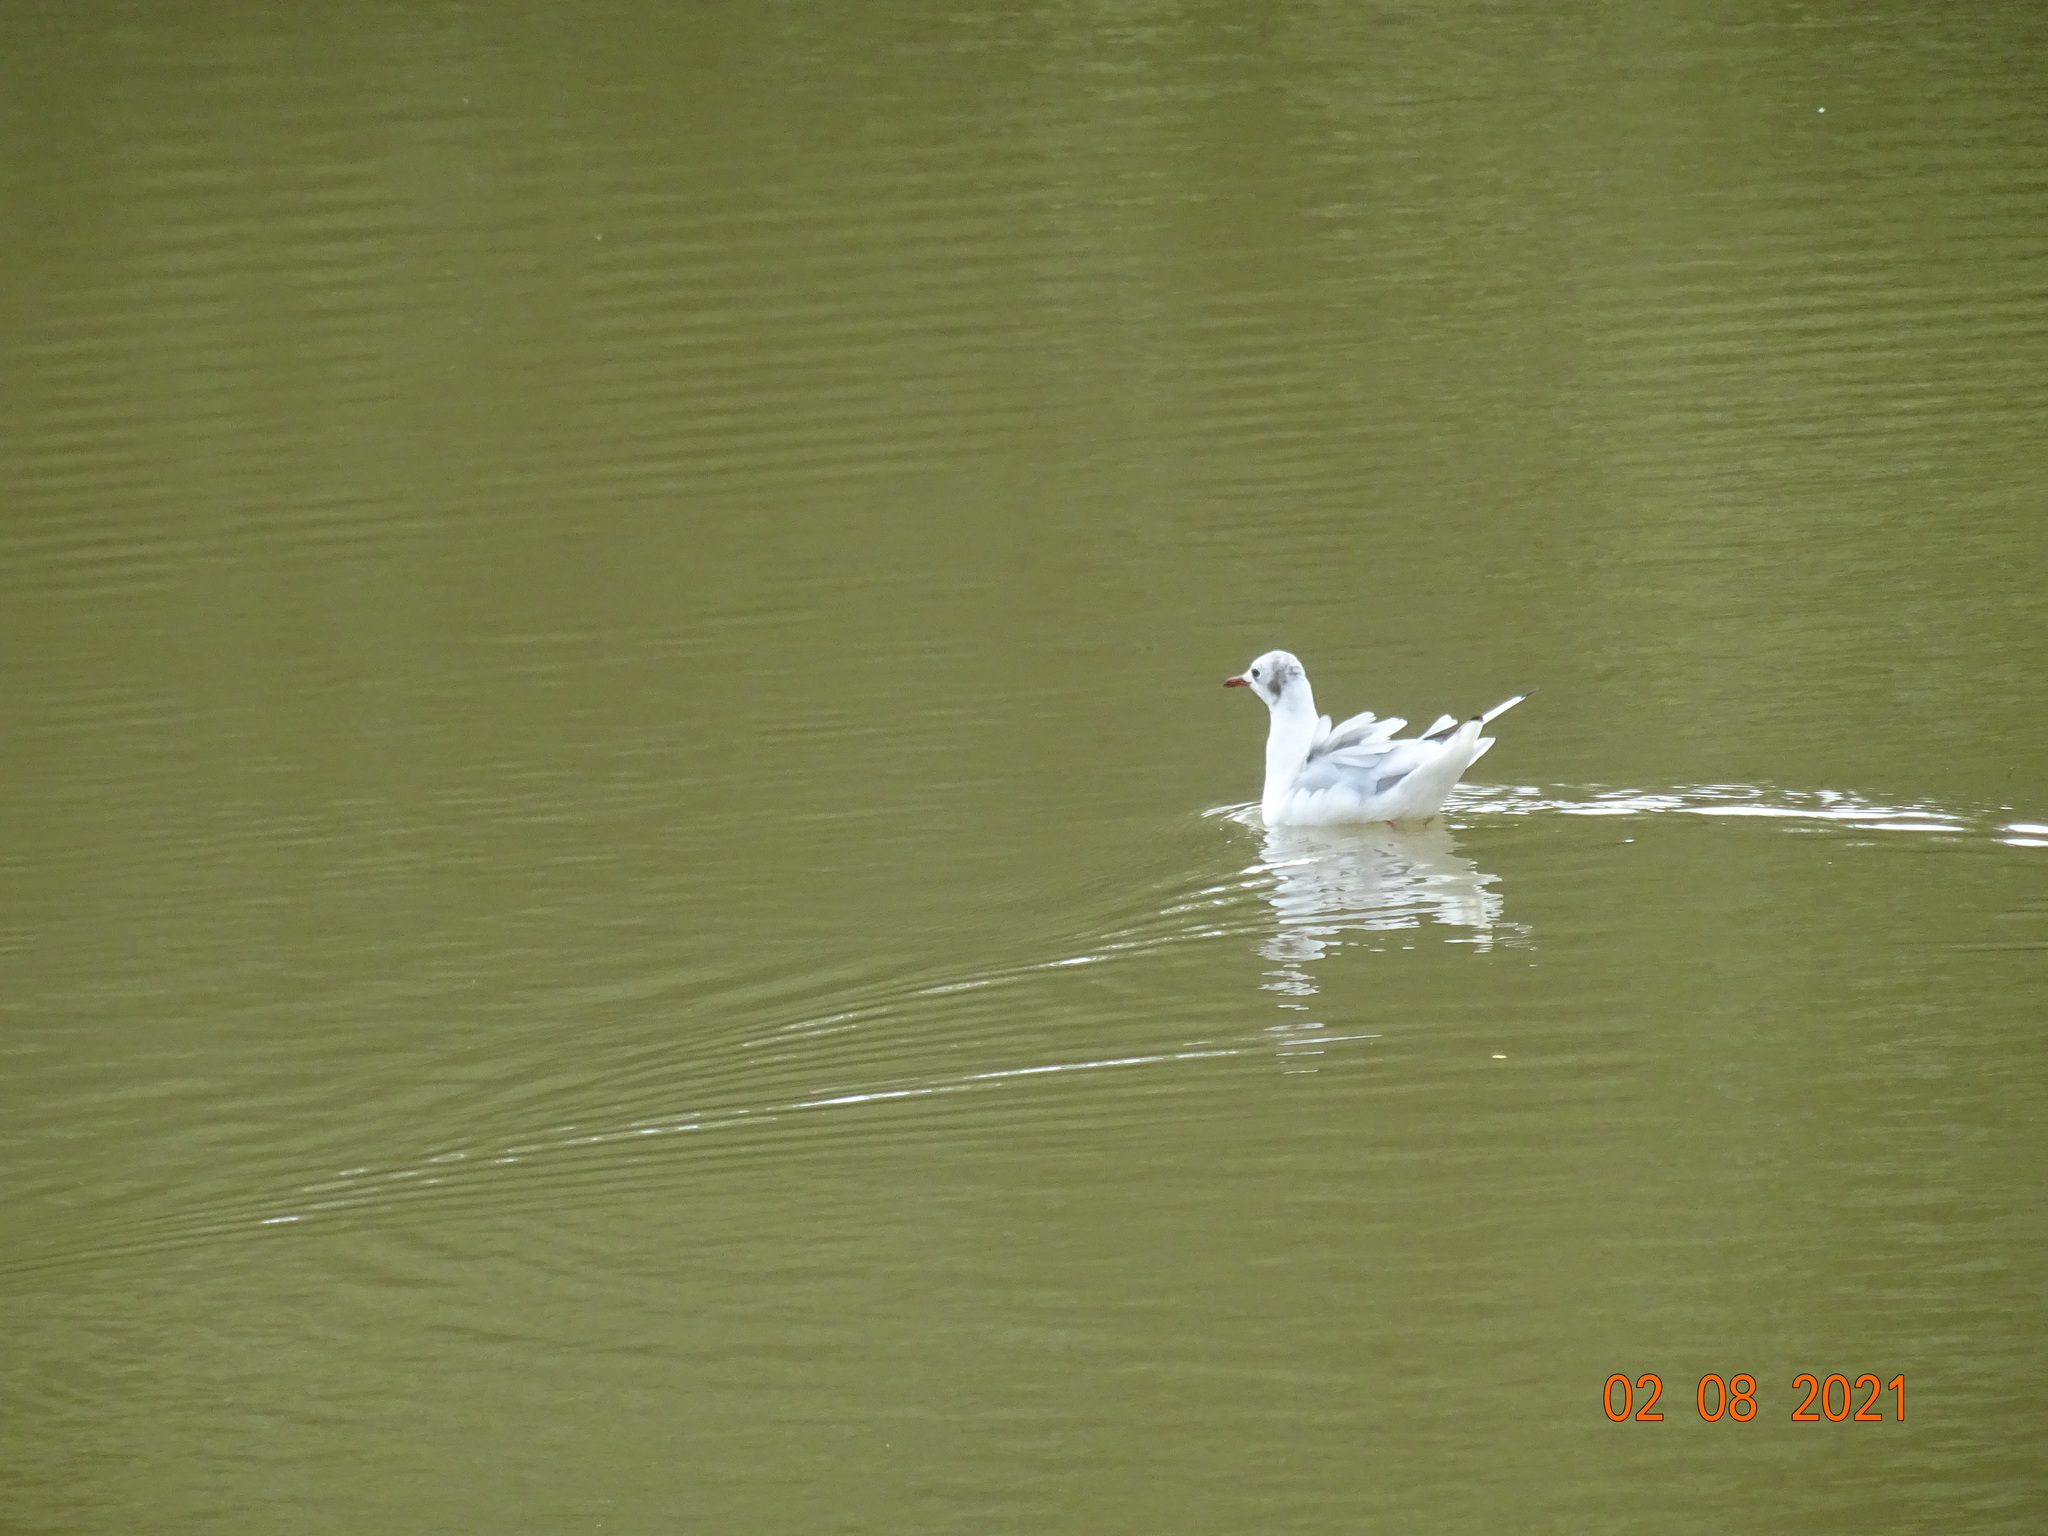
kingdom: Animalia
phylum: Chordata
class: Aves
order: Charadriiformes
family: Laridae
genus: Chroicocephalus
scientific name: Chroicocephalus ridibundus
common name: Black-headed gull
